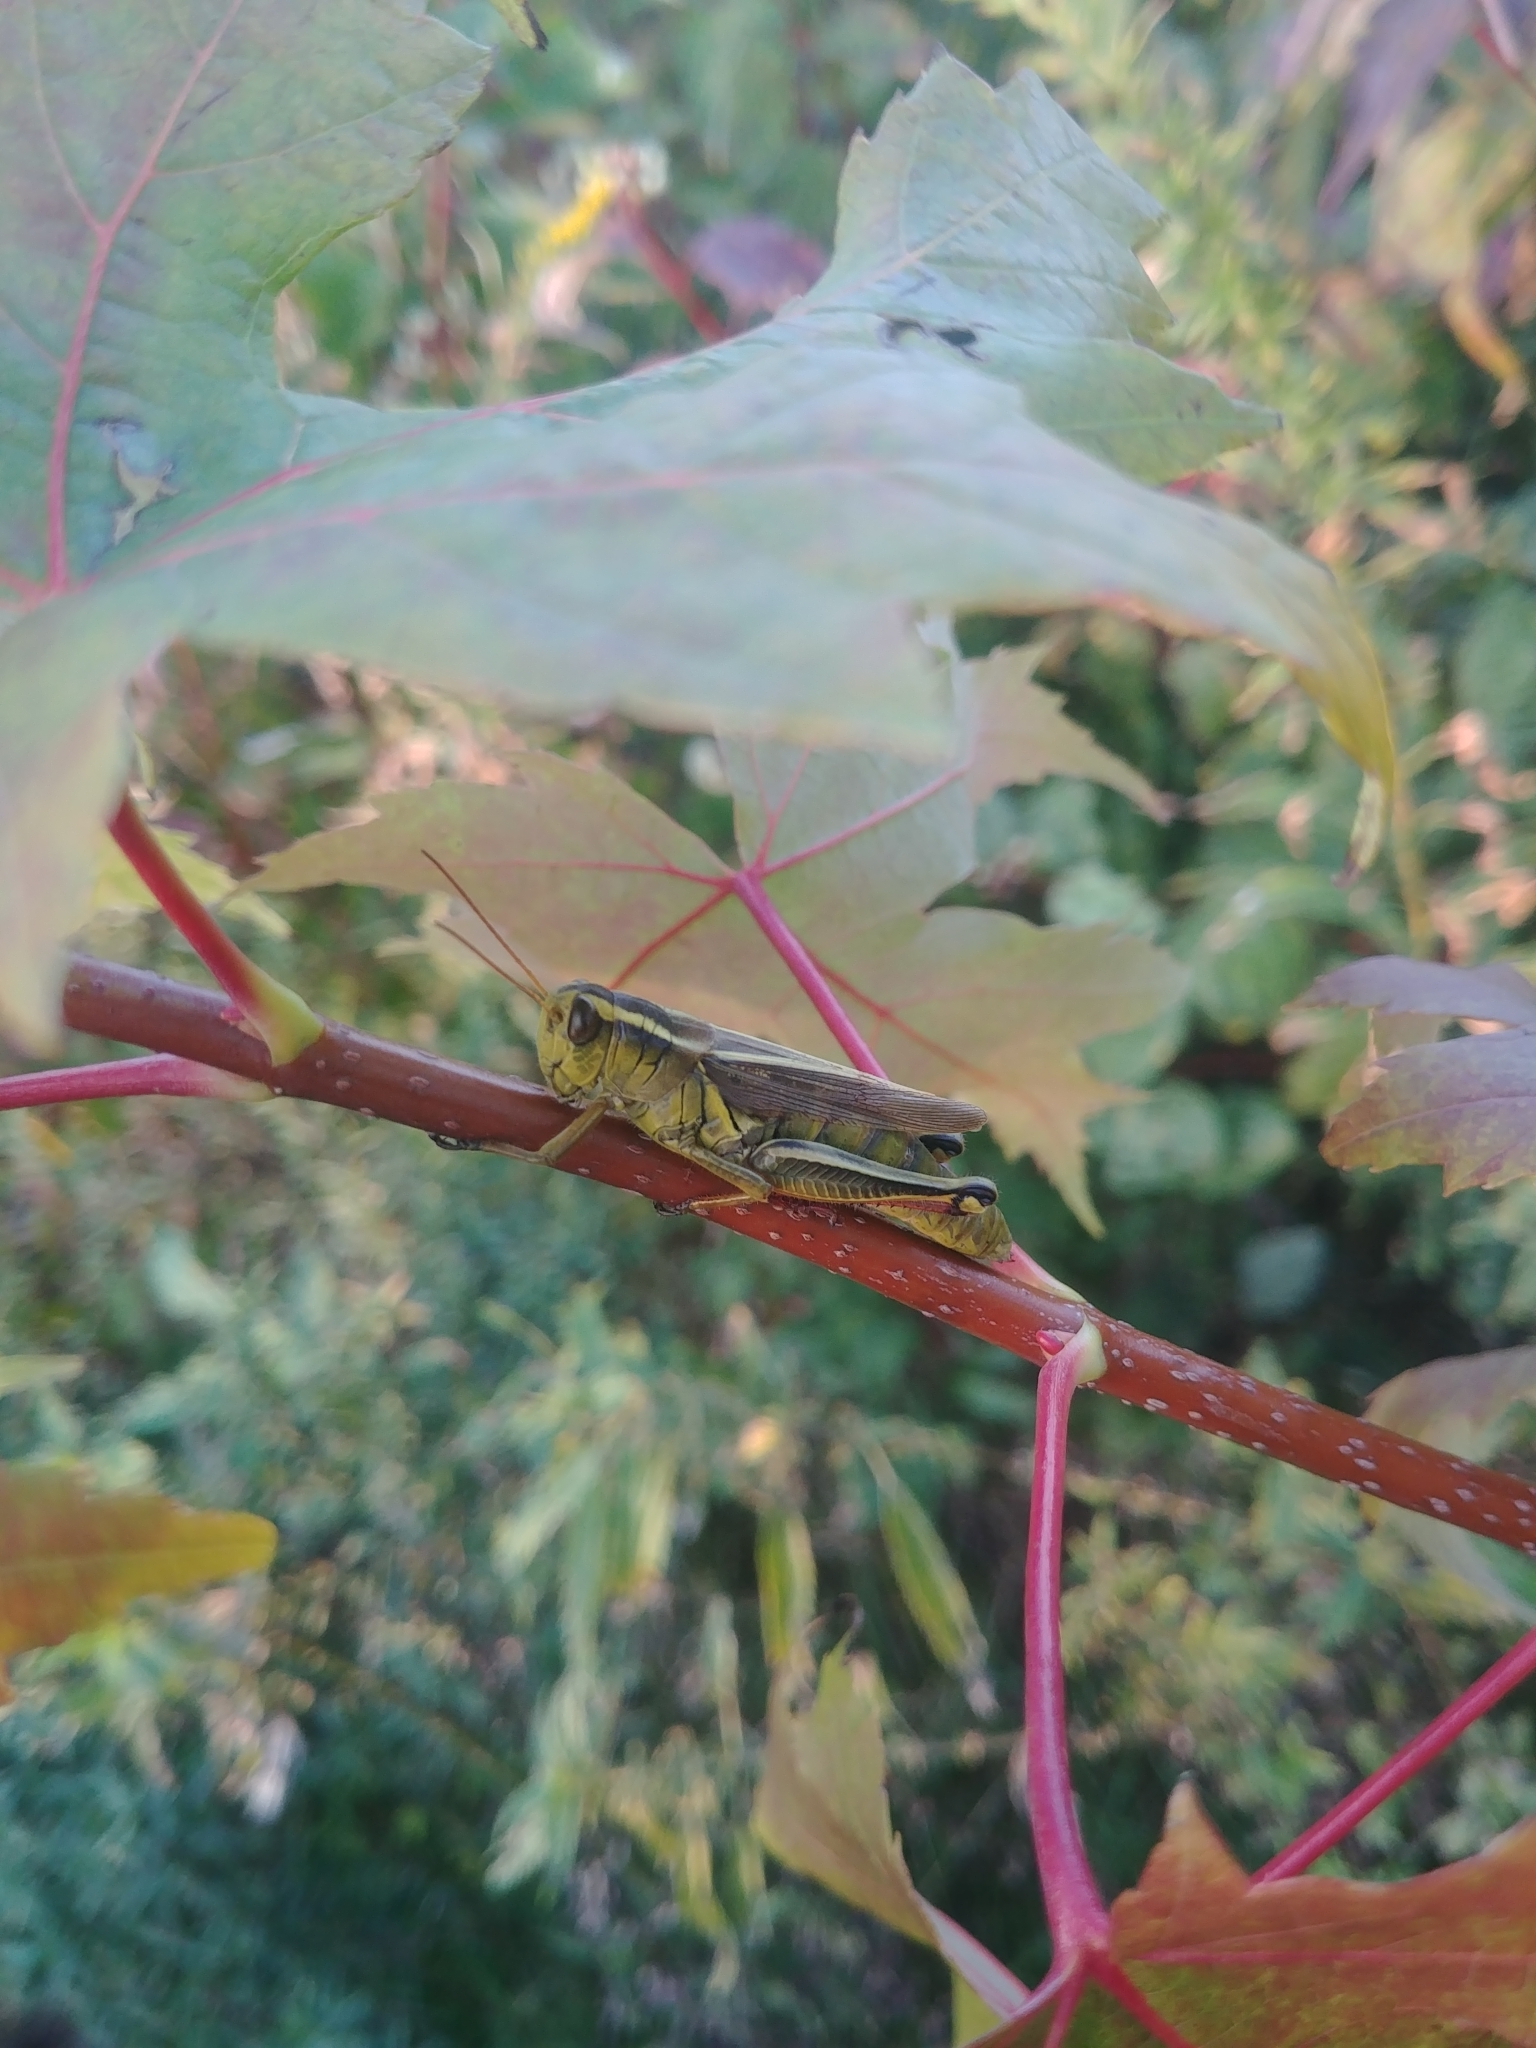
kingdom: Animalia
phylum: Arthropoda
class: Insecta
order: Orthoptera
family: Acrididae
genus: Melanoplus
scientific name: Melanoplus bivittatus
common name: Two-striped grasshopper
